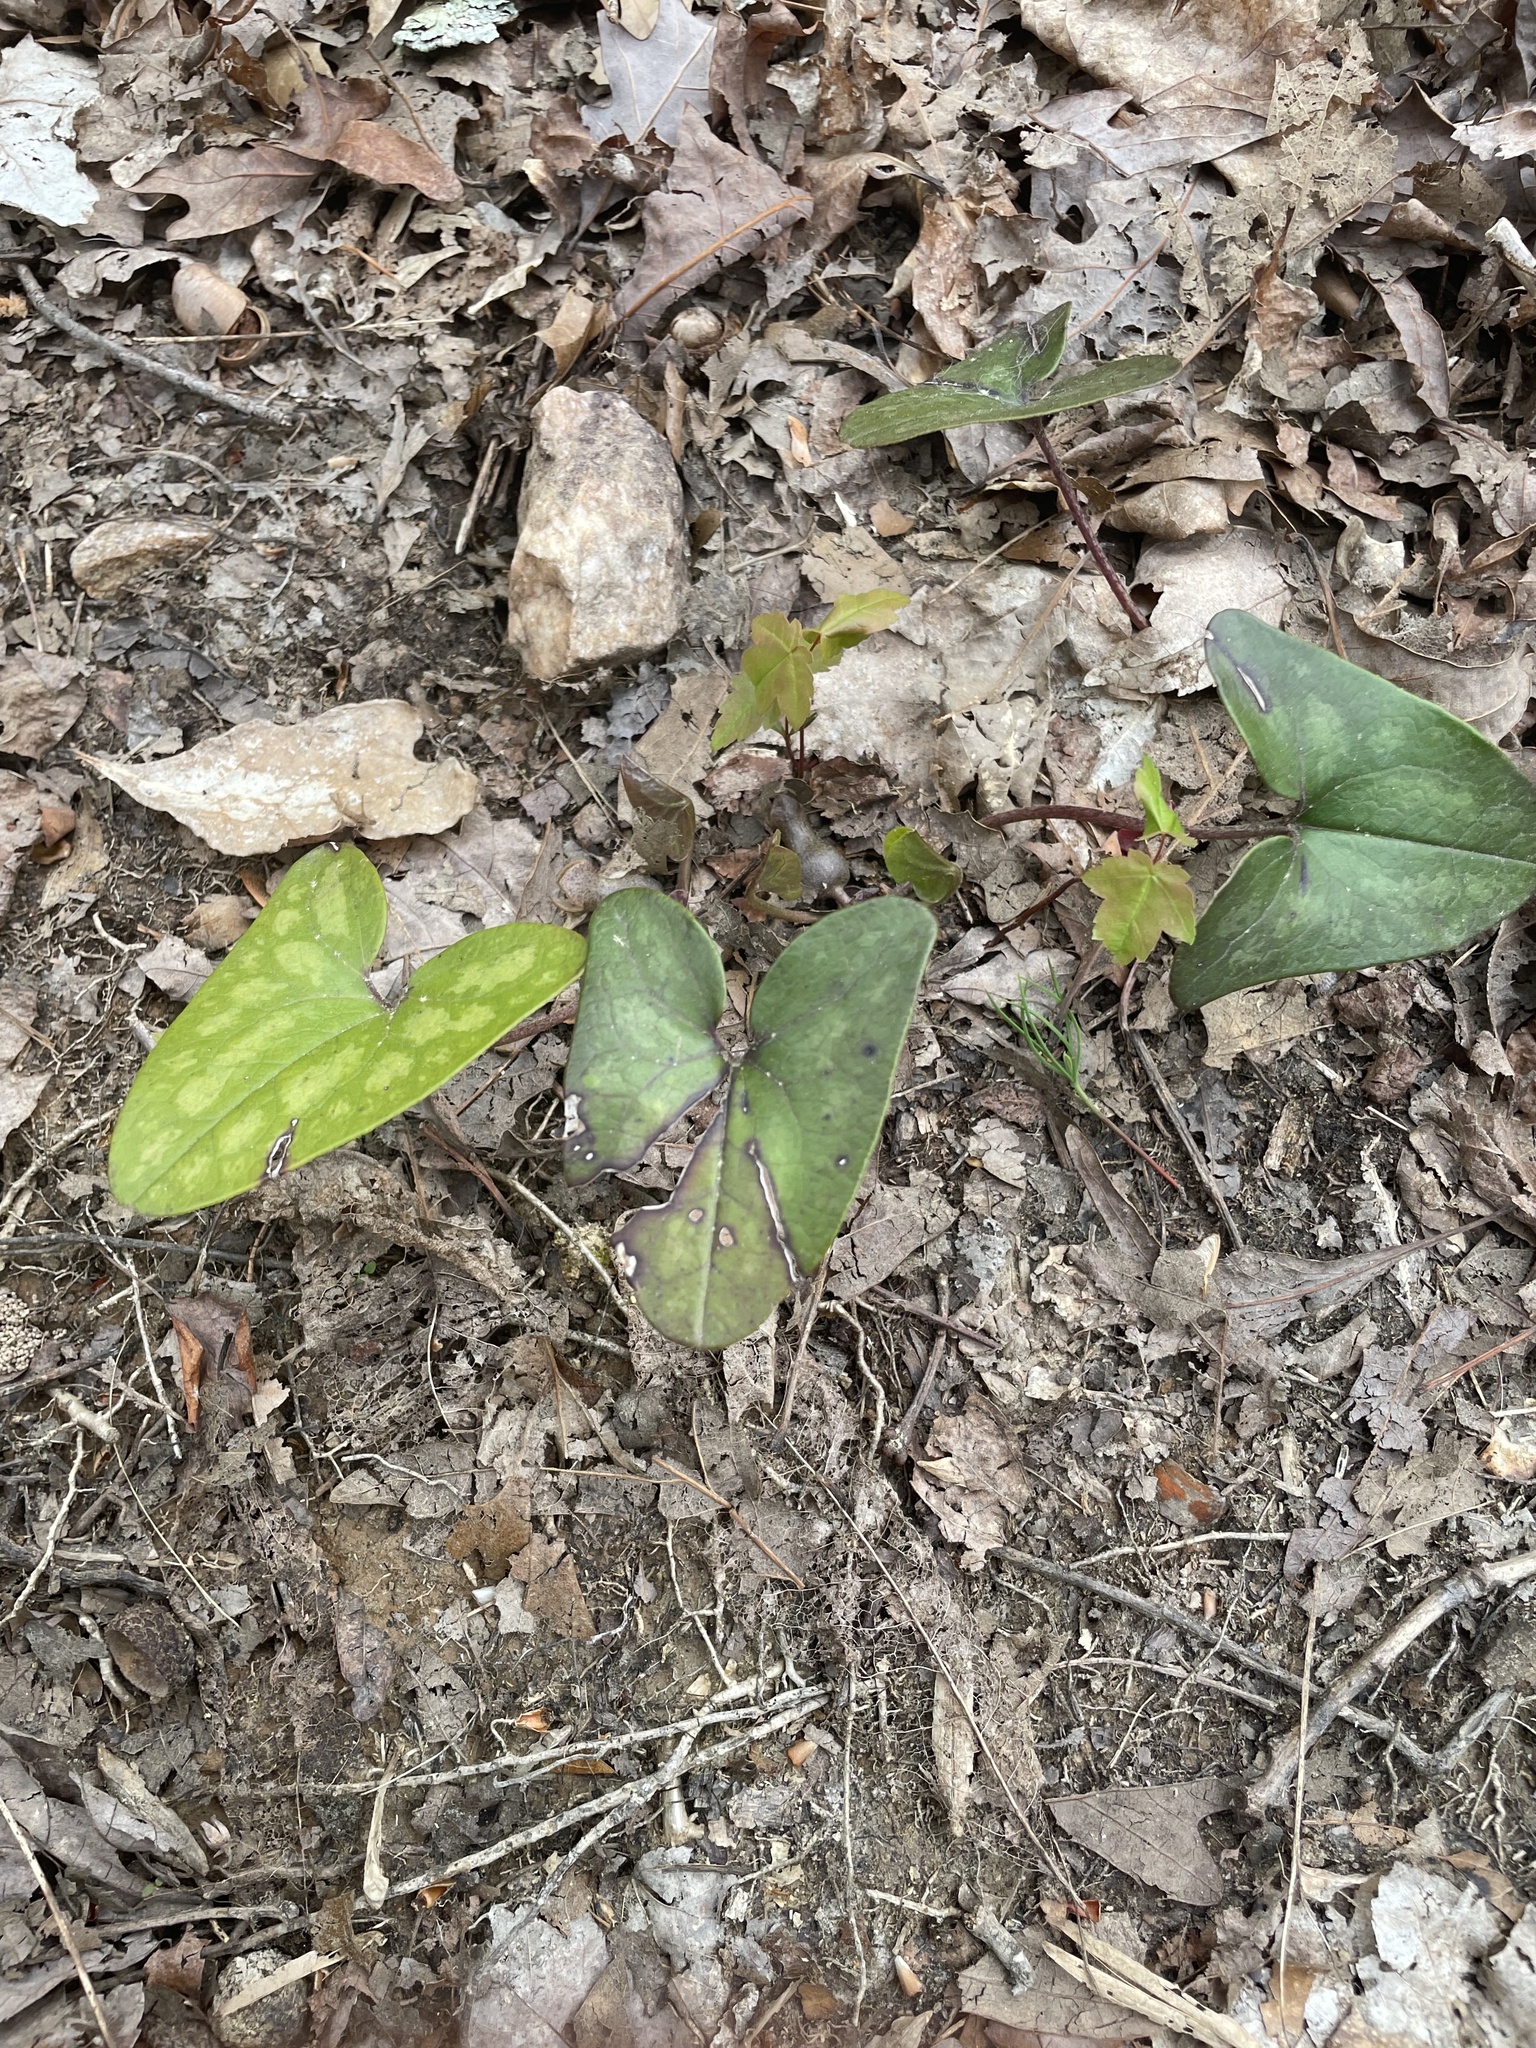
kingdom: Plantae
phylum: Tracheophyta
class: Magnoliopsida
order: Piperales
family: Aristolochiaceae
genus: Hexastylis
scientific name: Hexastylis arifolia
